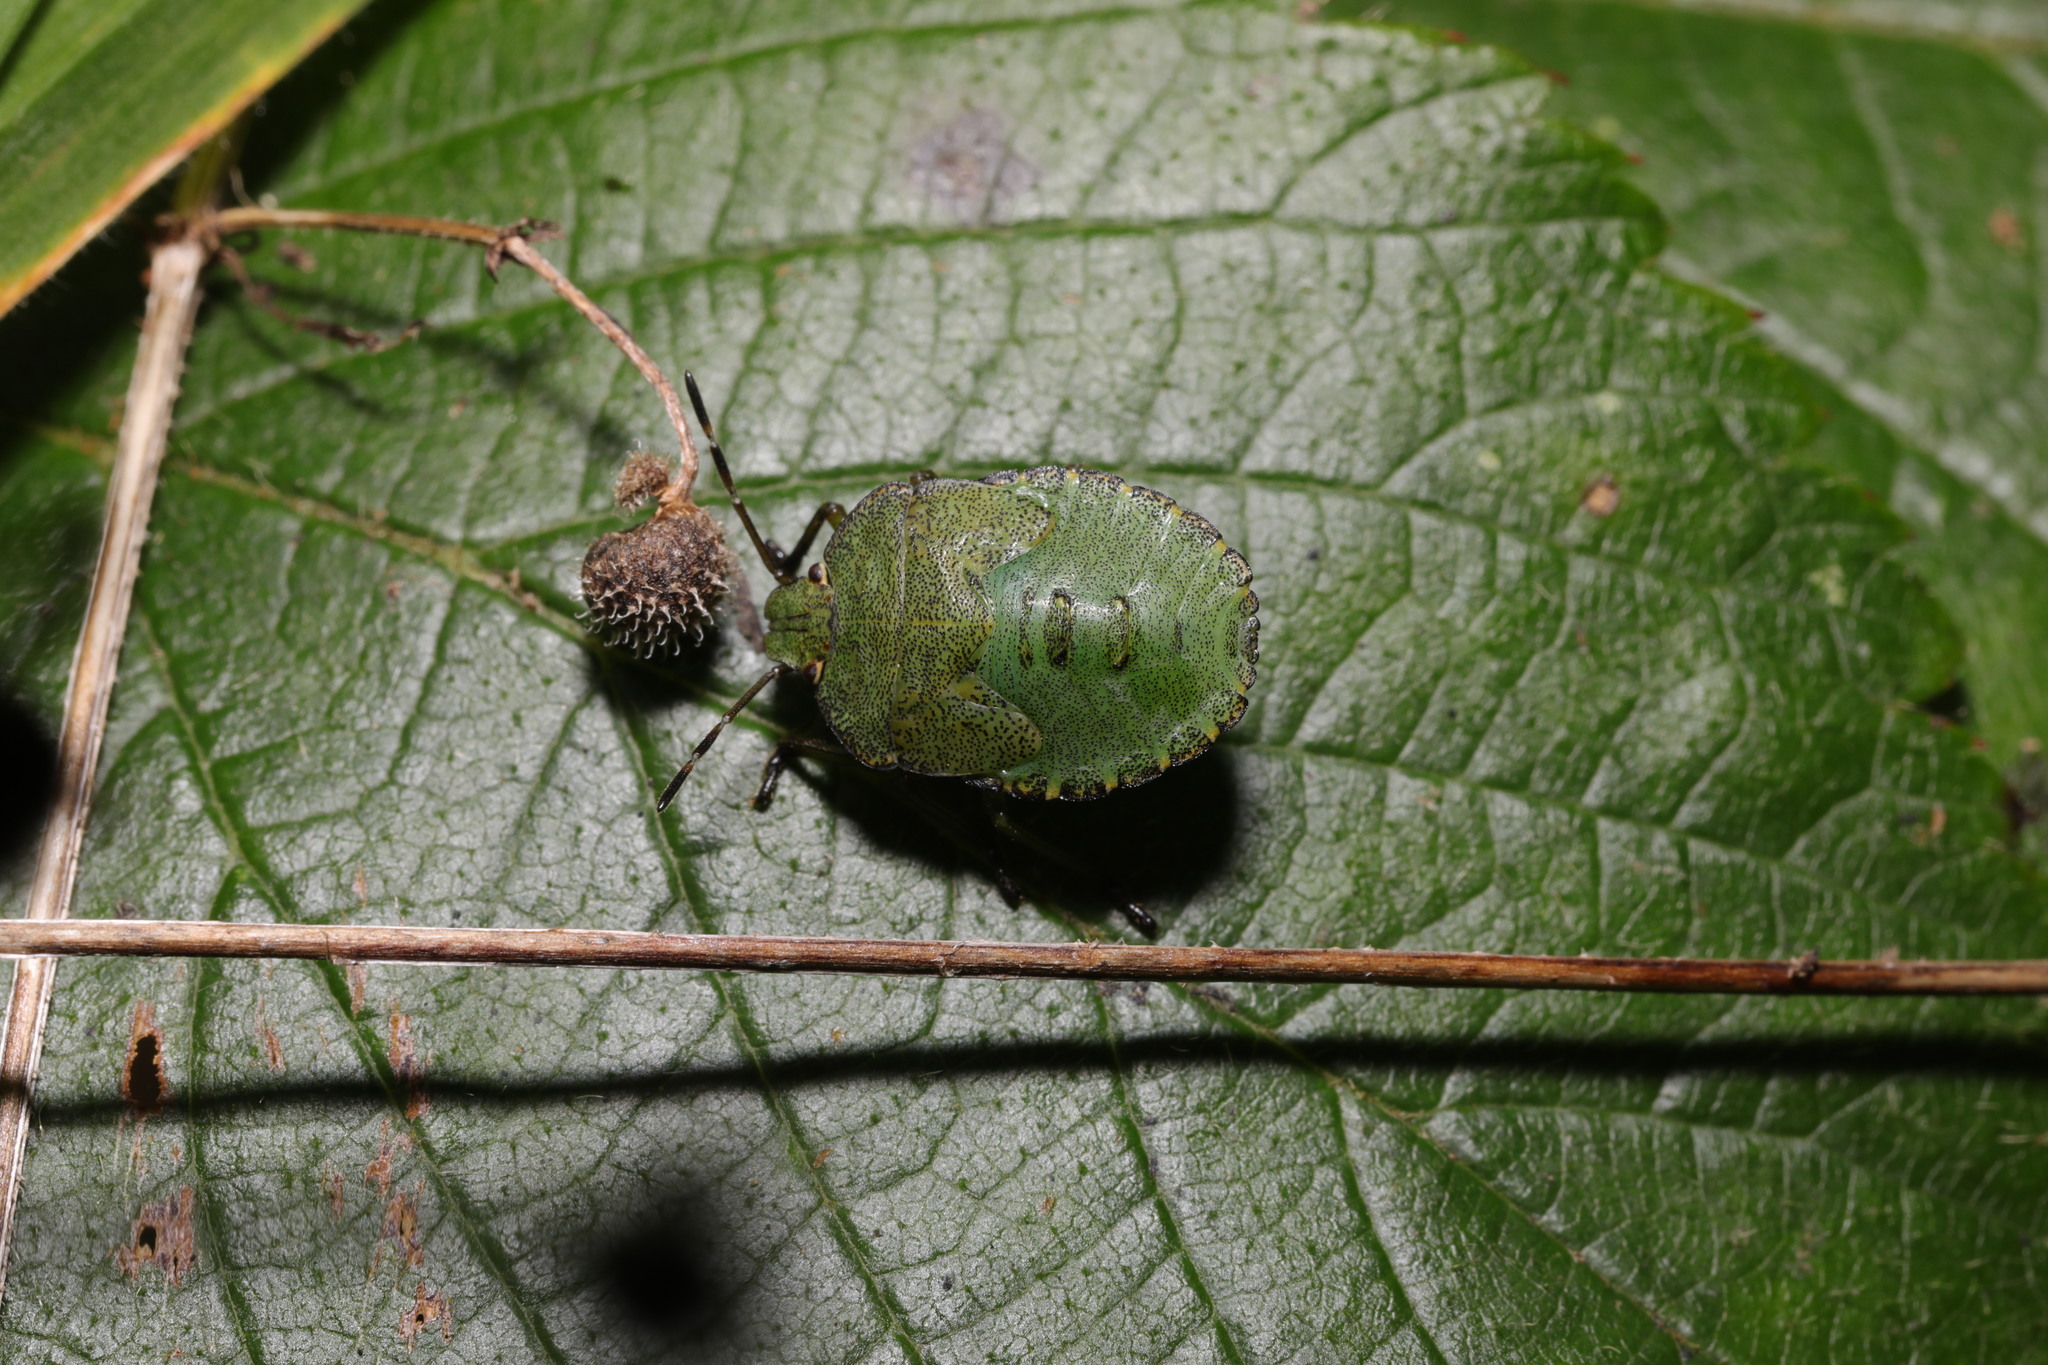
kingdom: Animalia
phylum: Arthropoda
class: Insecta
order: Hemiptera
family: Pentatomidae
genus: Palomena
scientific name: Palomena prasina
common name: Green shieldbug
